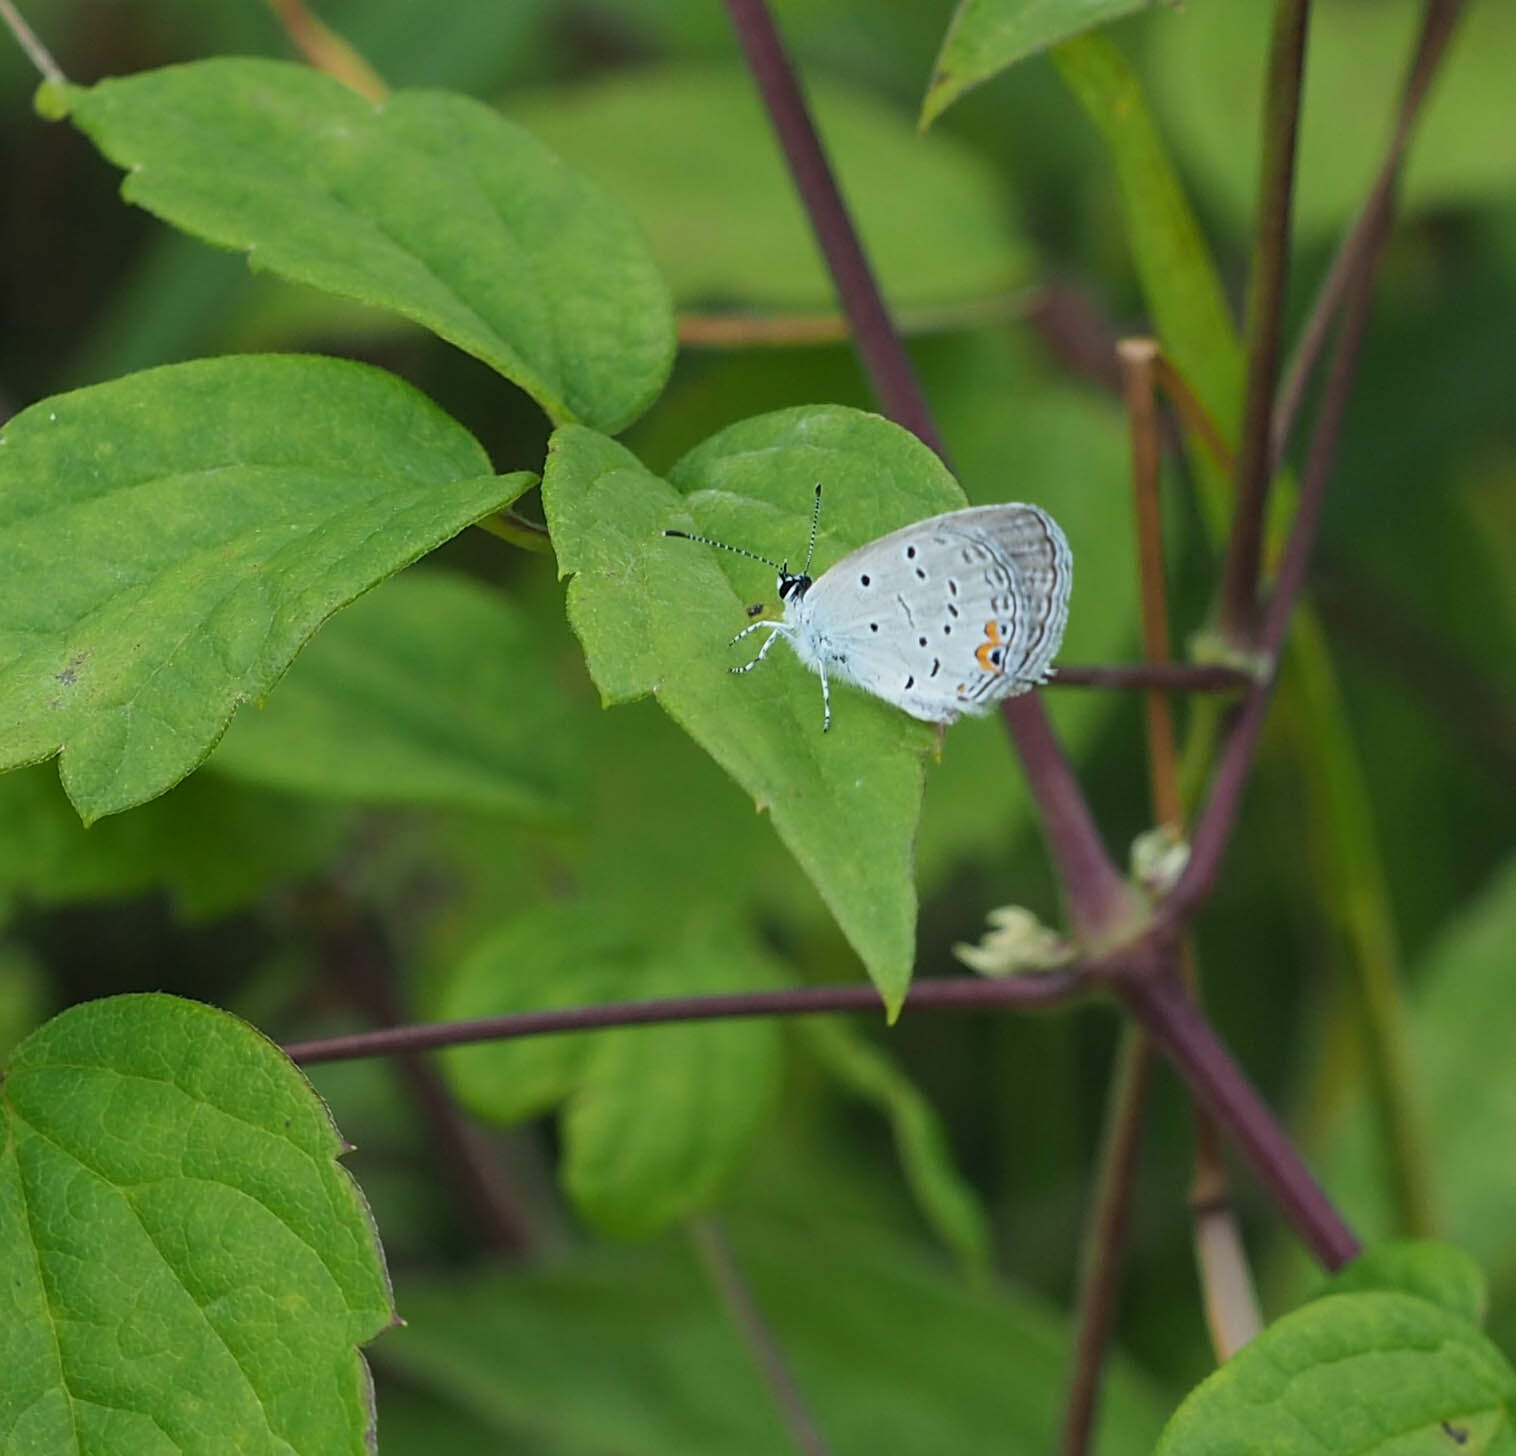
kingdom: Animalia
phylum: Arthropoda
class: Insecta
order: Lepidoptera
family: Lycaenidae
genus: Elkalyce
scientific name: Elkalyce comyntas
